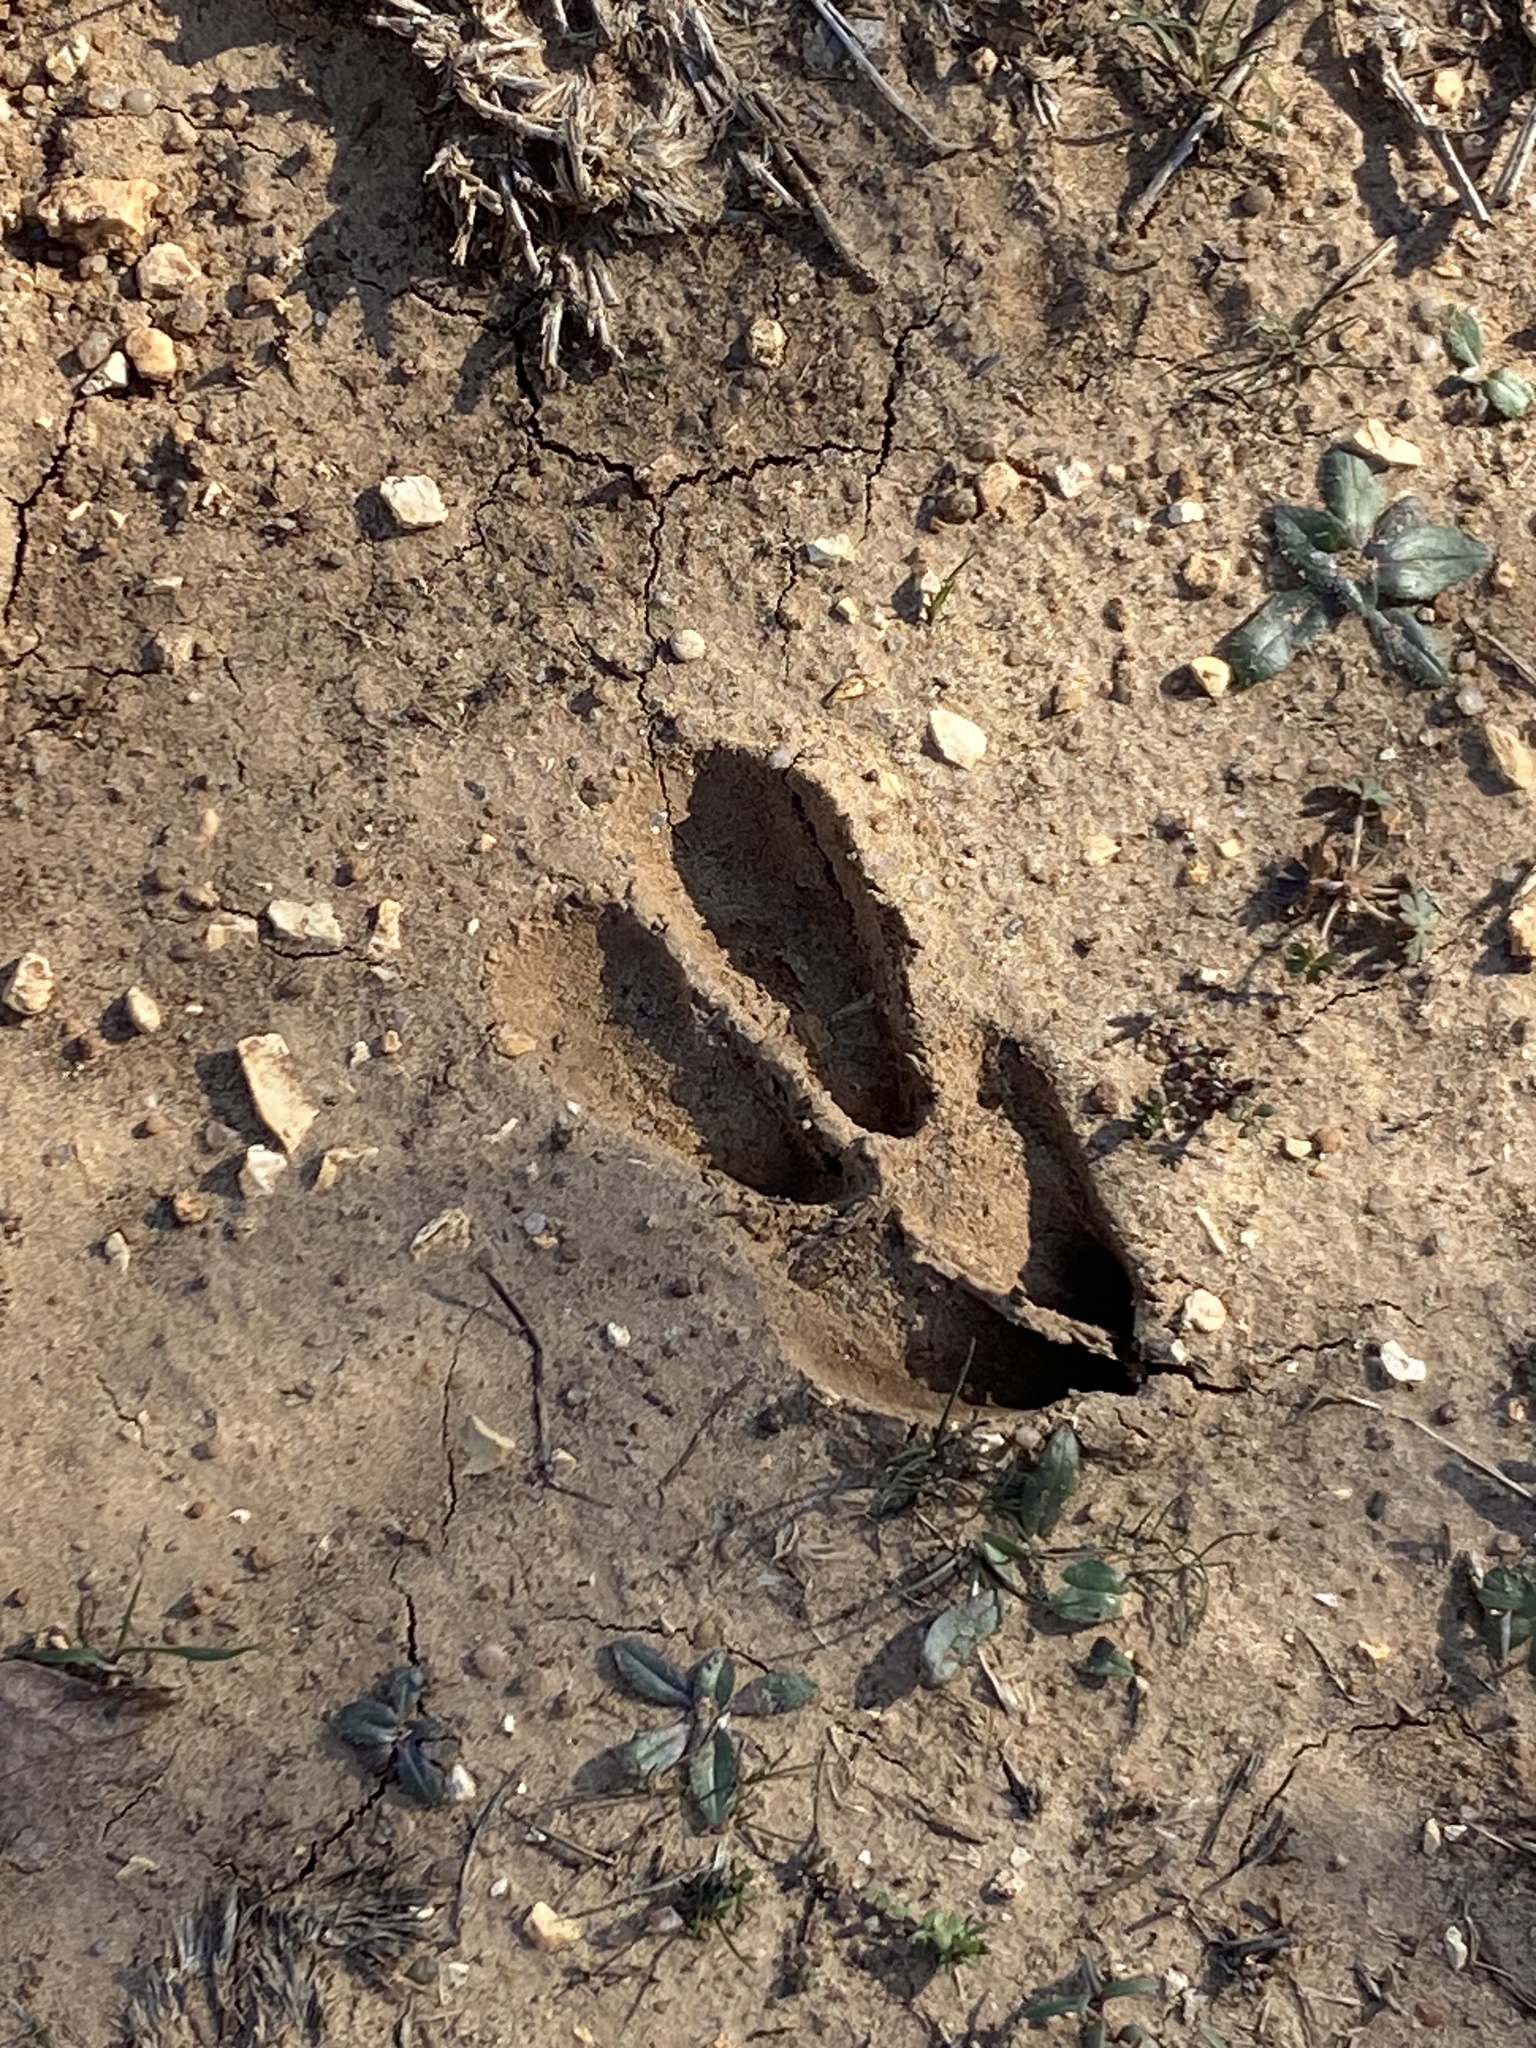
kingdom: Animalia
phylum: Chordata
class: Mammalia
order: Artiodactyla
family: Cervidae
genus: Odocoileus
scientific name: Odocoileus virginianus
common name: White-tailed deer
